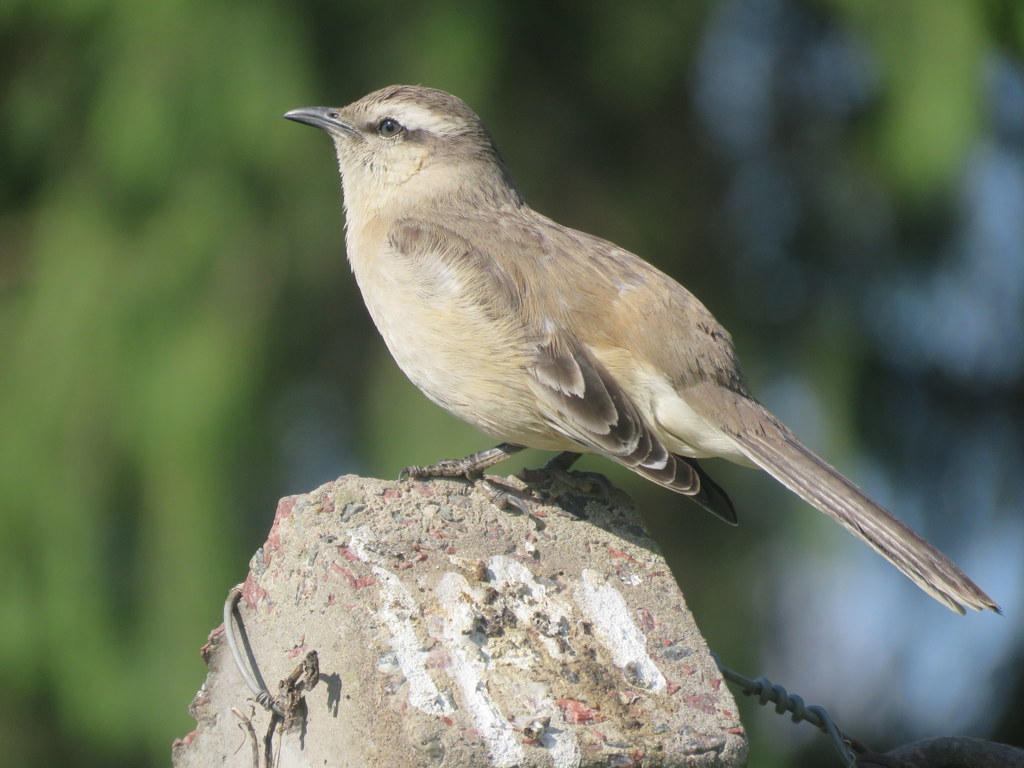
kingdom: Animalia
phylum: Chordata
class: Aves
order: Passeriformes
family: Mimidae
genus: Mimus
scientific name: Mimus saturninus
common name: Chalk-browed mockingbird
